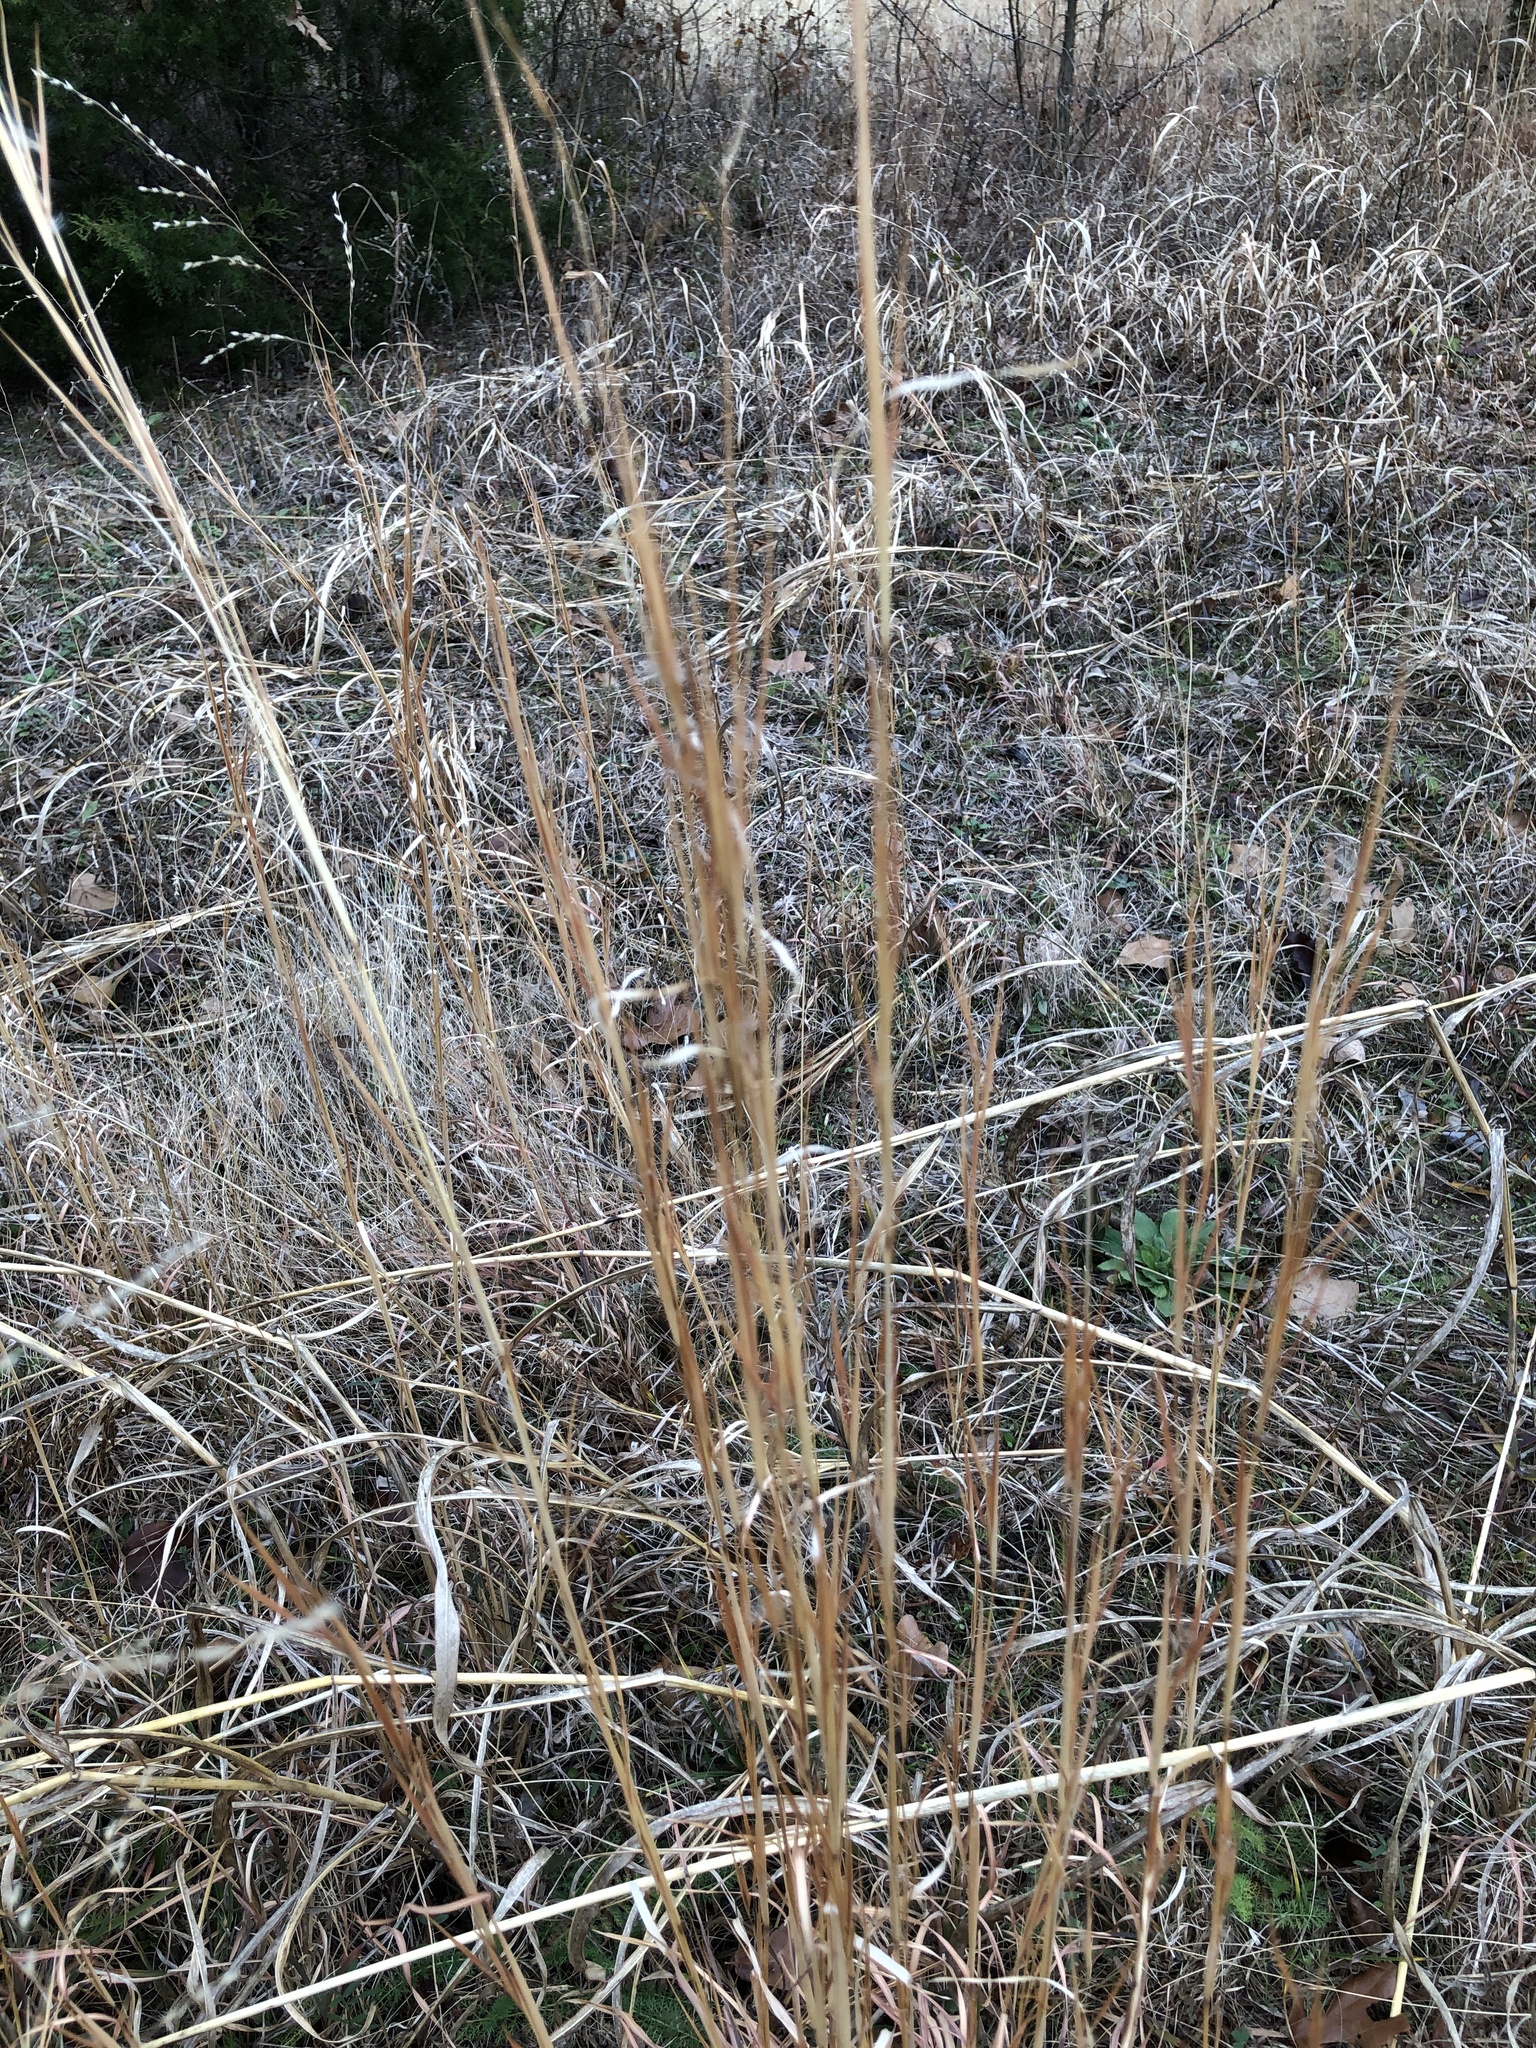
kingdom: Plantae
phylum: Tracheophyta
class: Liliopsida
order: Poales
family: Poaceae
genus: Schizachyrium
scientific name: Schizachyrium scoparium
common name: Little bluestem
